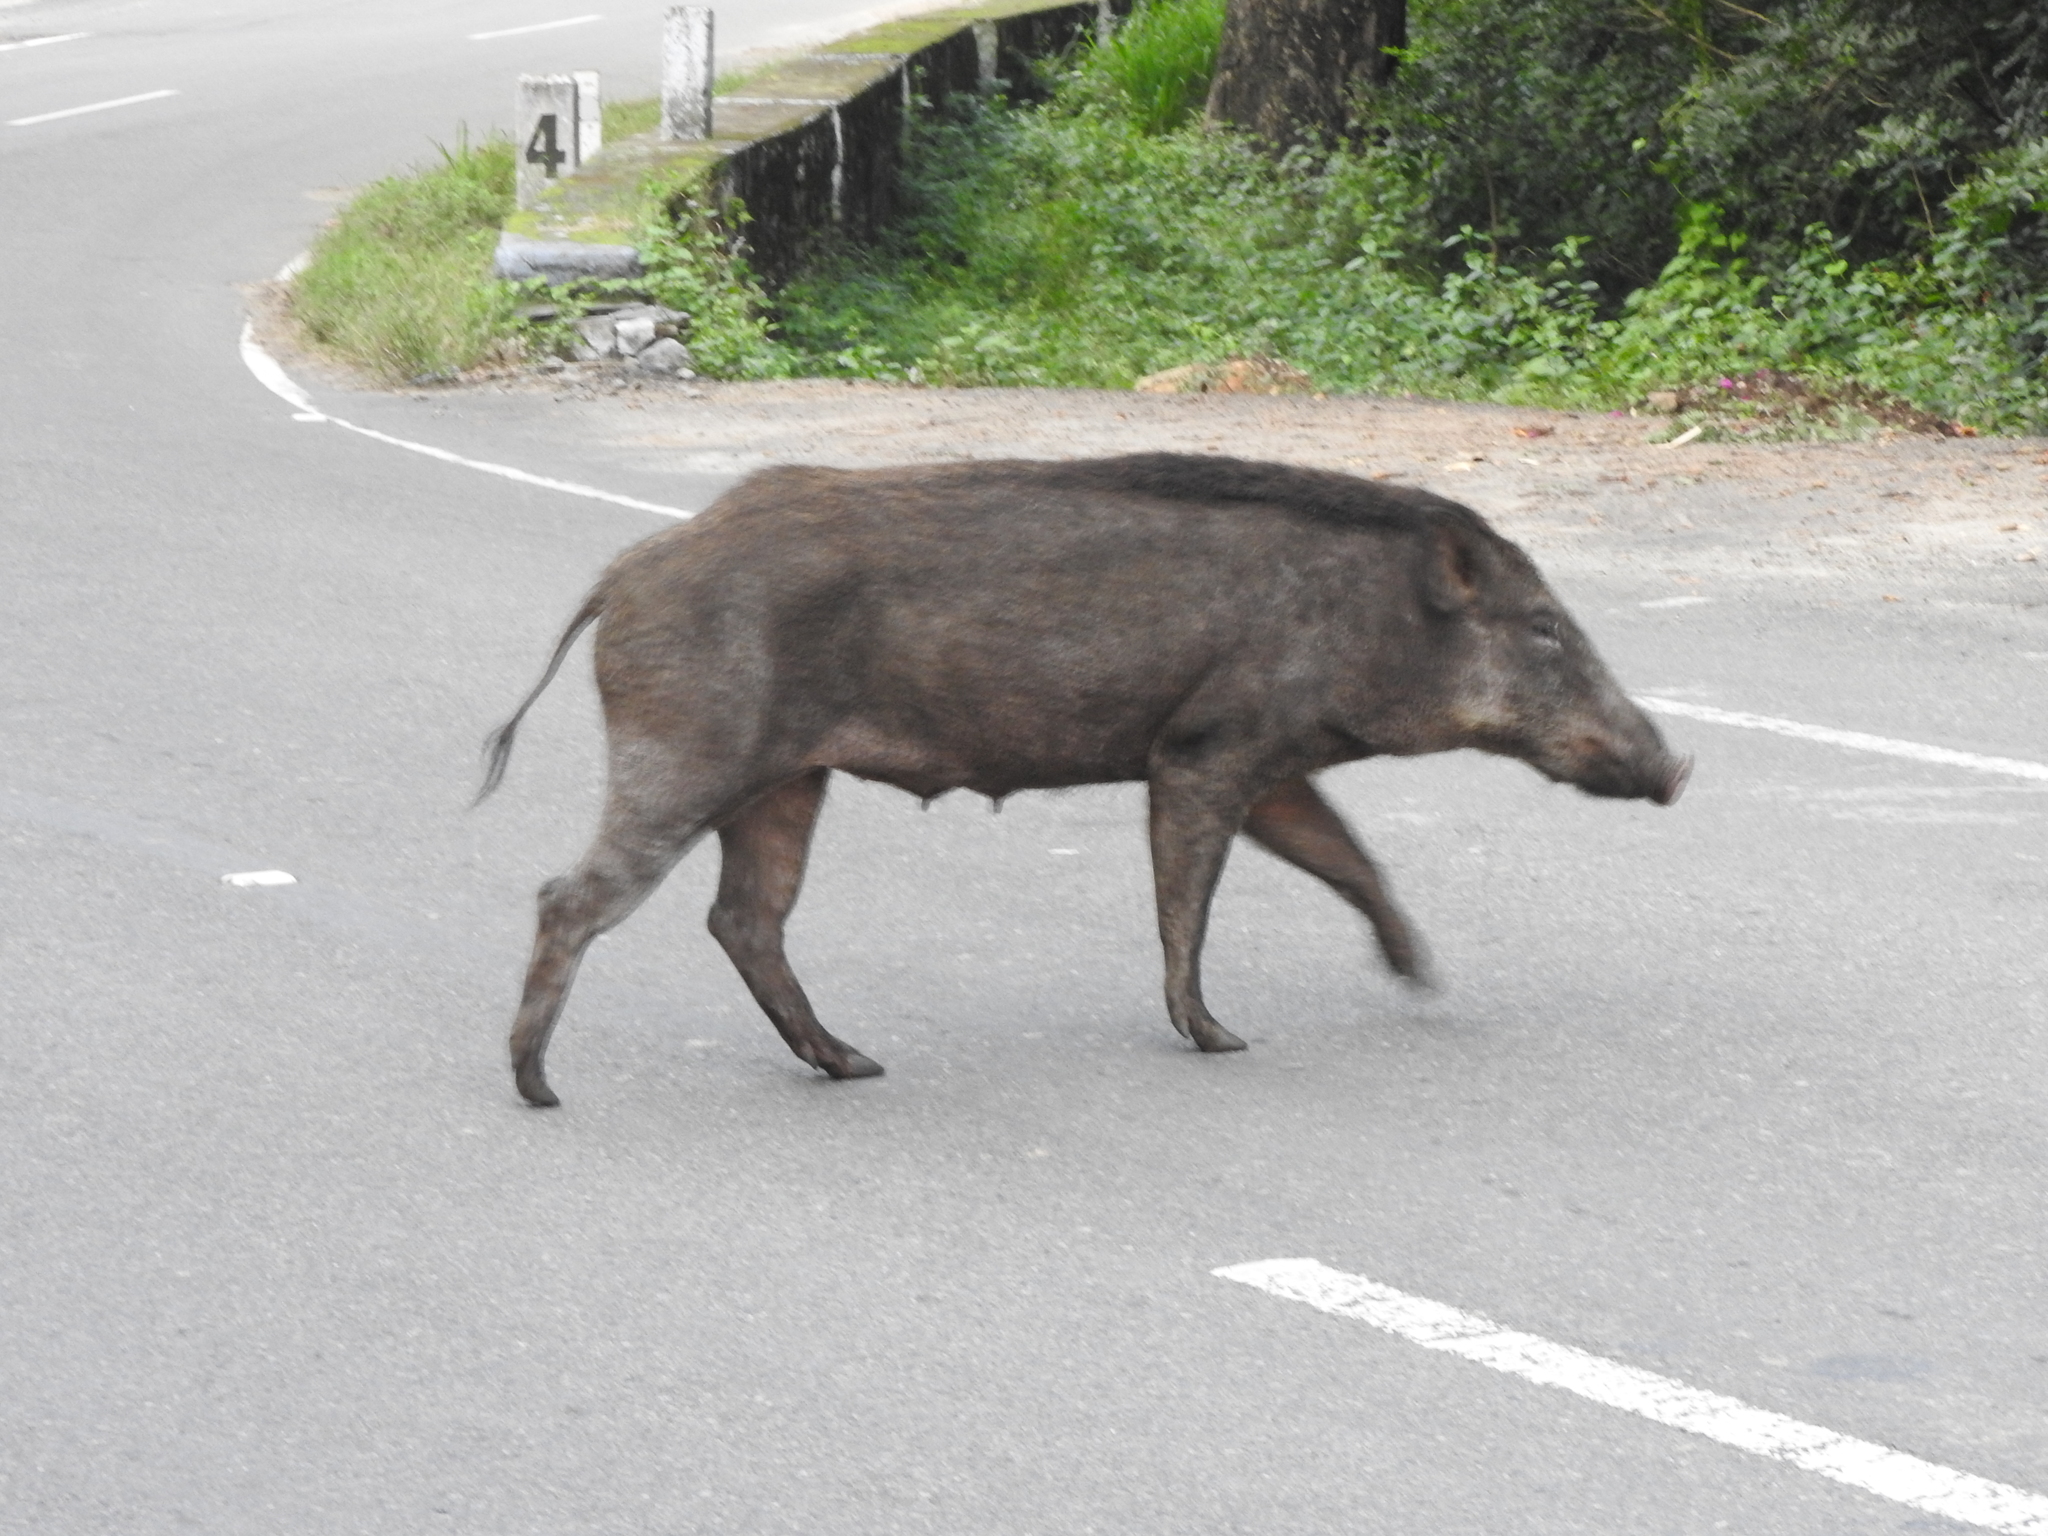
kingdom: Animalia
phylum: Chordata
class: Mammalia
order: Artiodactyla
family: Suidae
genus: Sus
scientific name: Sus scrofa
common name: Wild boar
